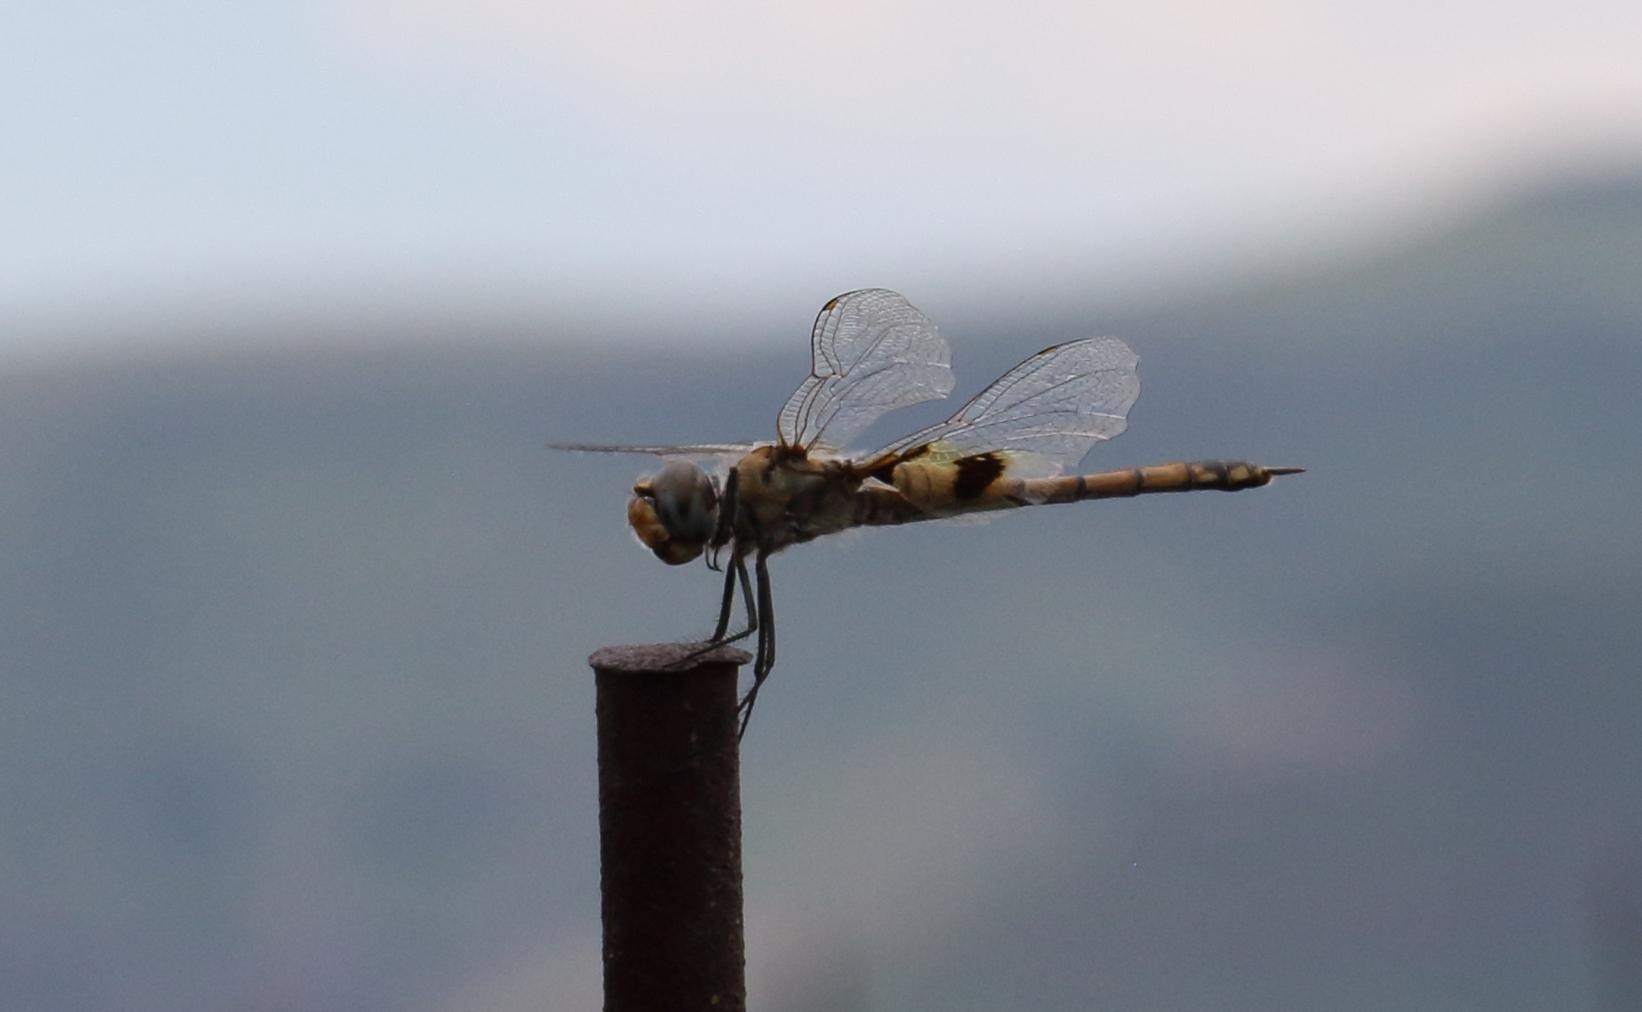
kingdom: Animalia
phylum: Arthropoda
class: Insecta
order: Odonata
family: Libellulidae
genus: Tramea
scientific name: Tramea basilaris
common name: Keyhole glider
